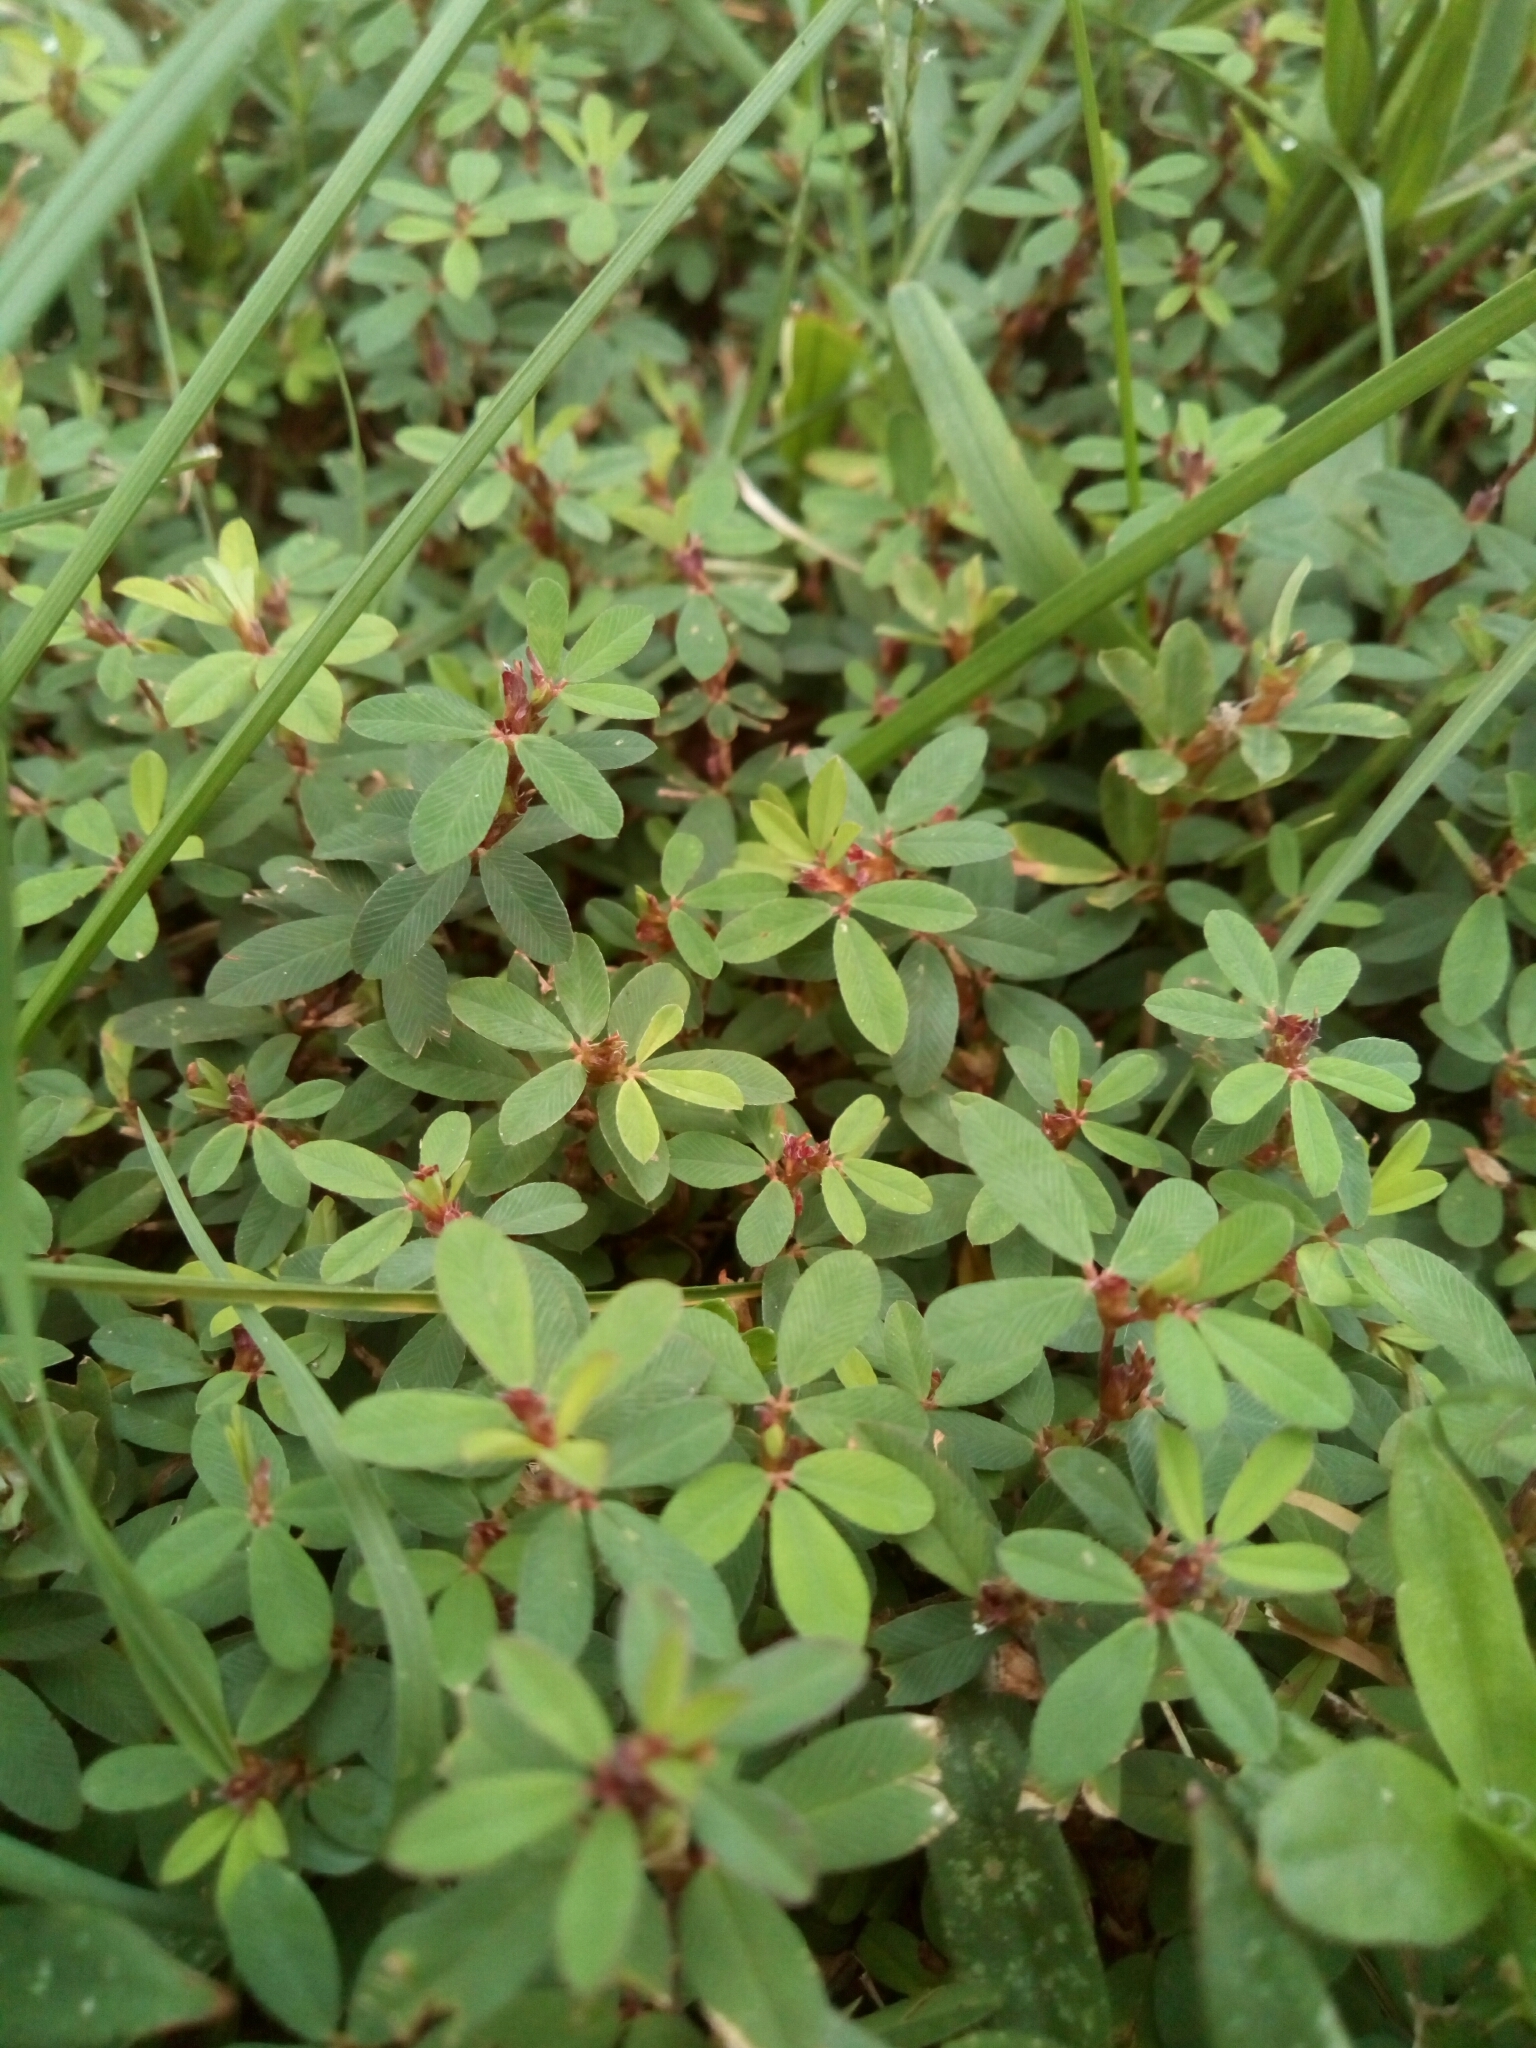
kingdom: Plantae
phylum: Tracheophyta
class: Magnoliopsida
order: Fabales
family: Fabaceae
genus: Kummerowia
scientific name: Kummerowia striata
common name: Japanese clover
